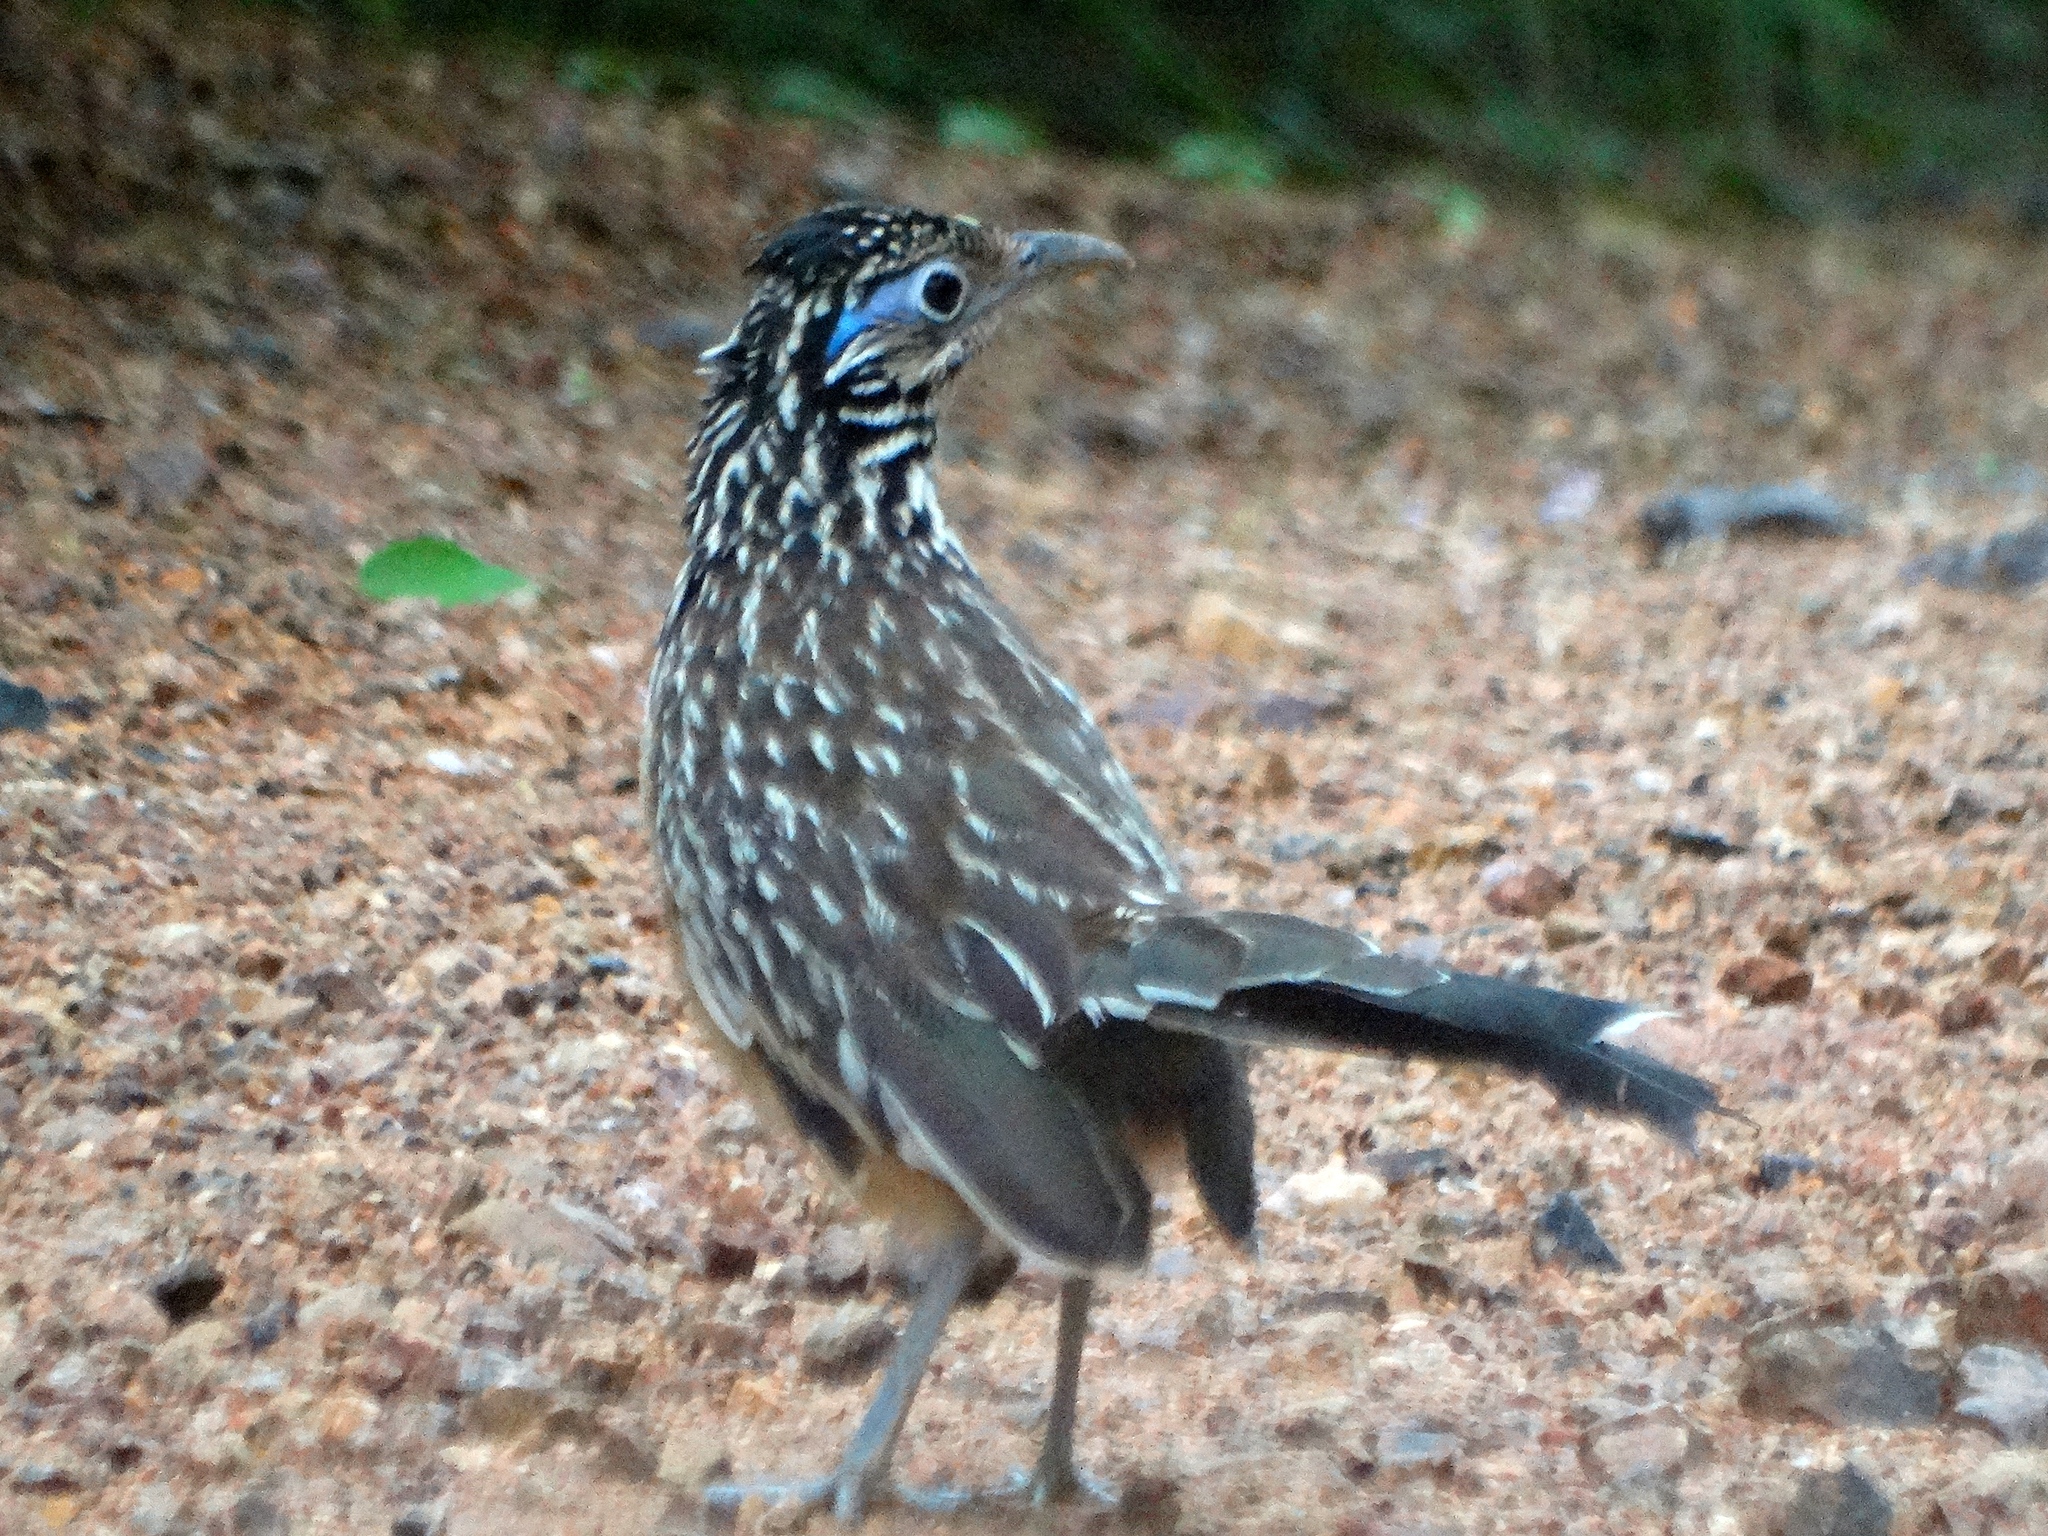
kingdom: Animalia
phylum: Chordata
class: Aves
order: Cuculiformes
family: Cuculidae
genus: Geococcyx
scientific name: Geococcyx velox
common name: Lesser roadrunner
